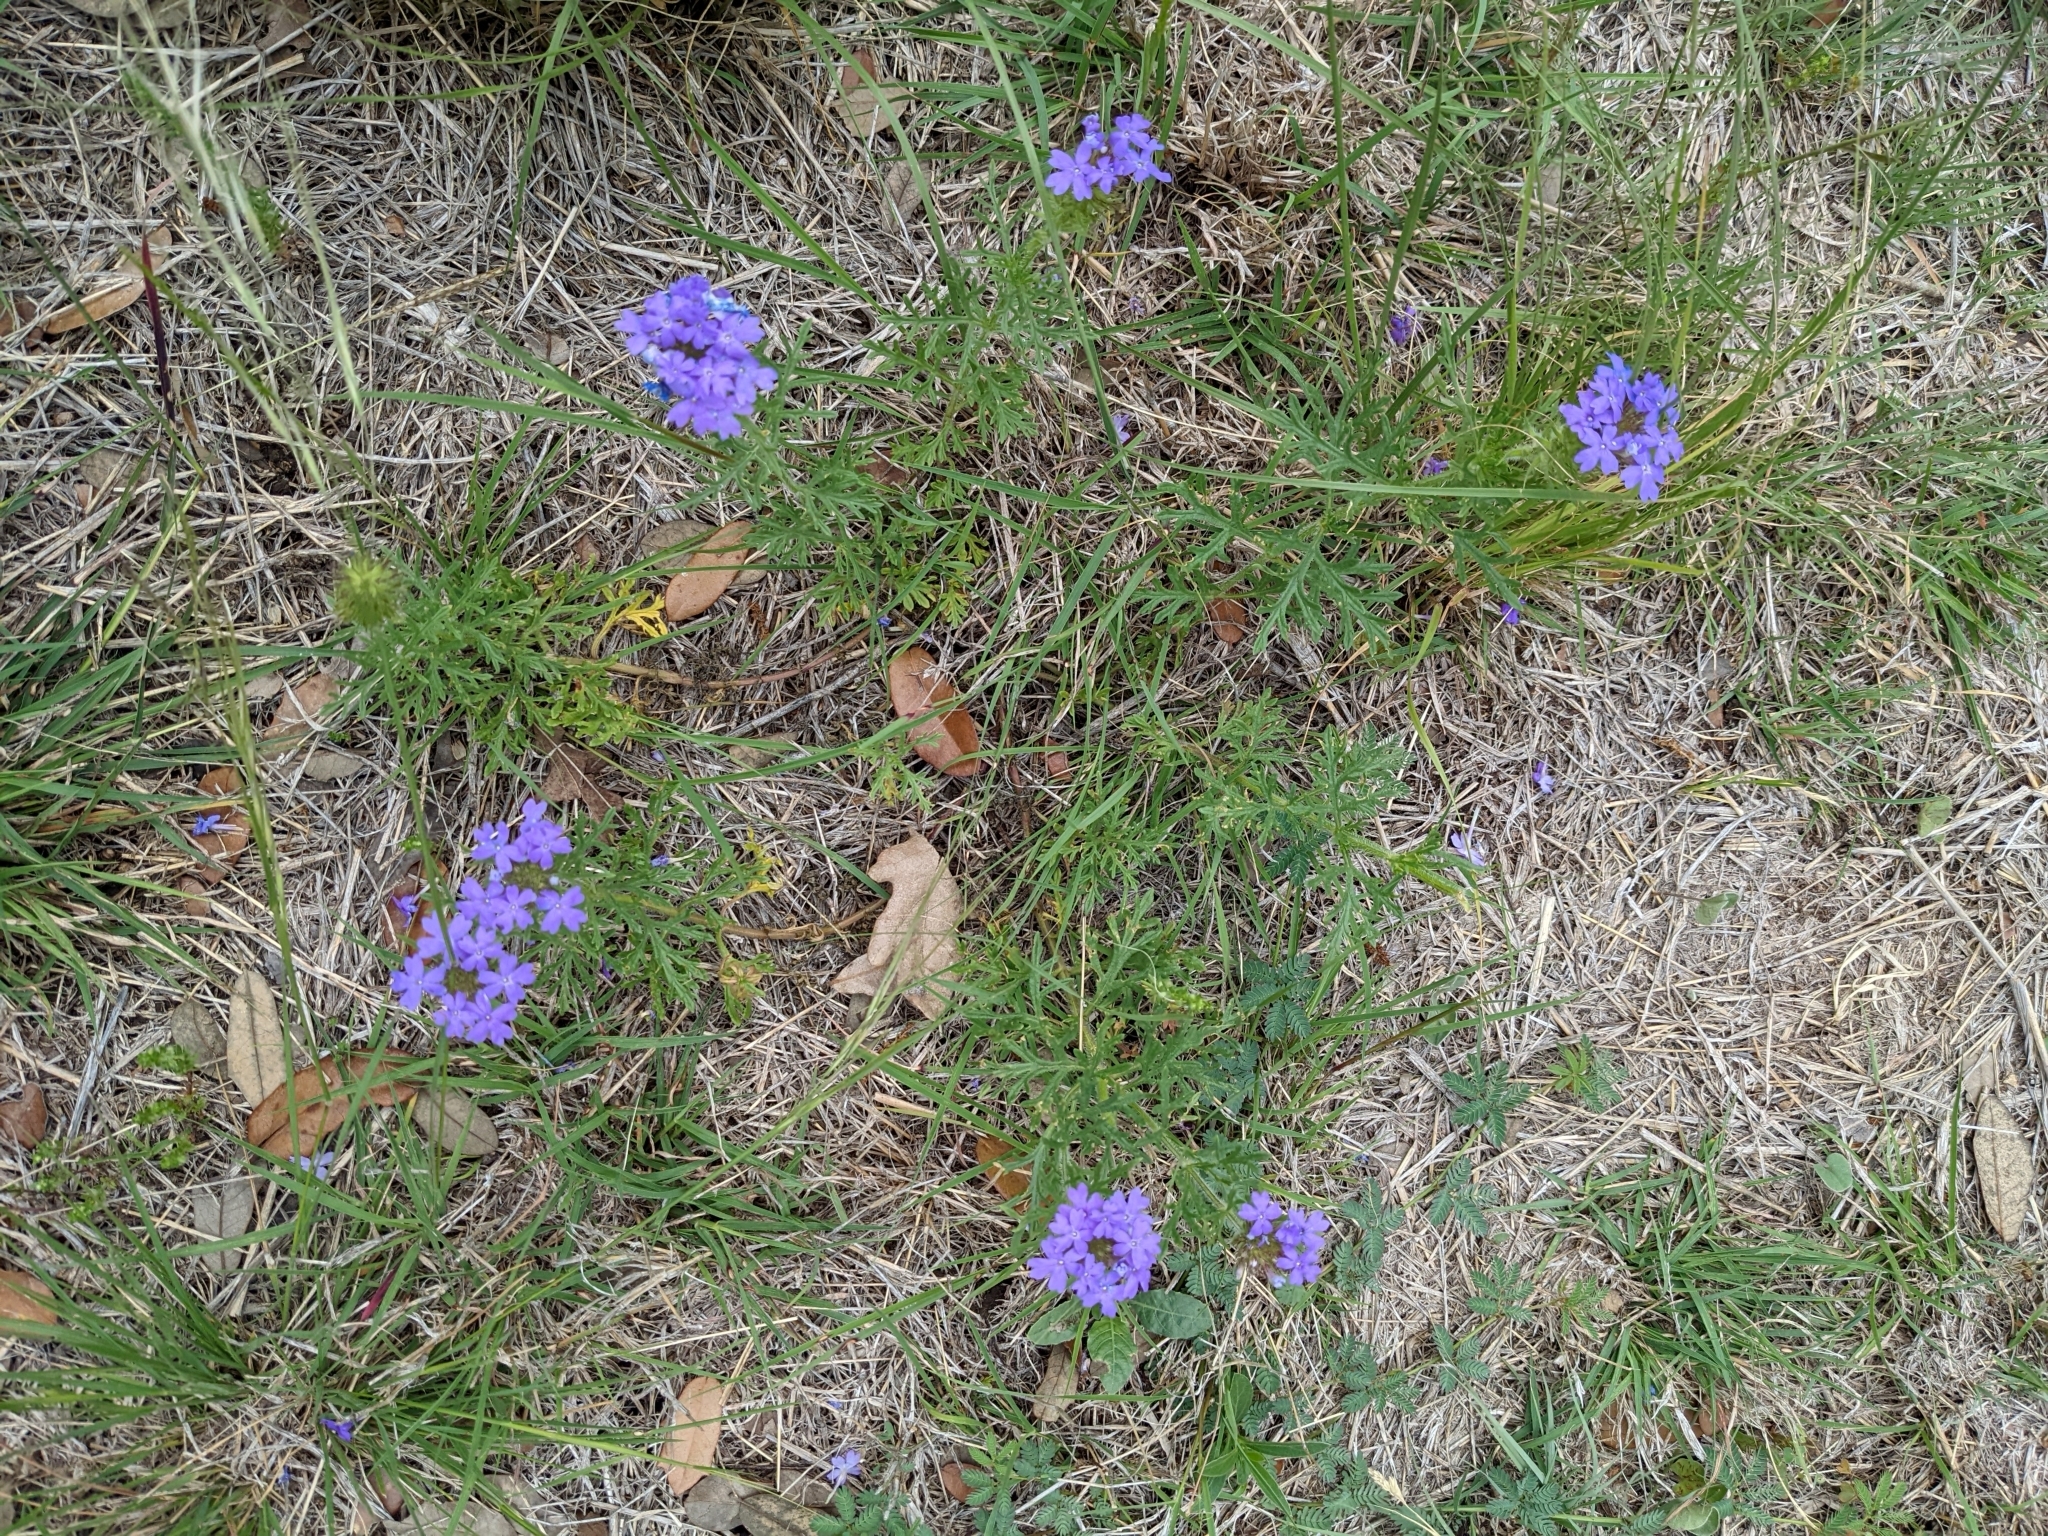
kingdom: Plantae
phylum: Tracheophyta
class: Magnoliopsida
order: Lamiales
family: Verbenaceae
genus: Verbena
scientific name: Verbena bipinnatifida
